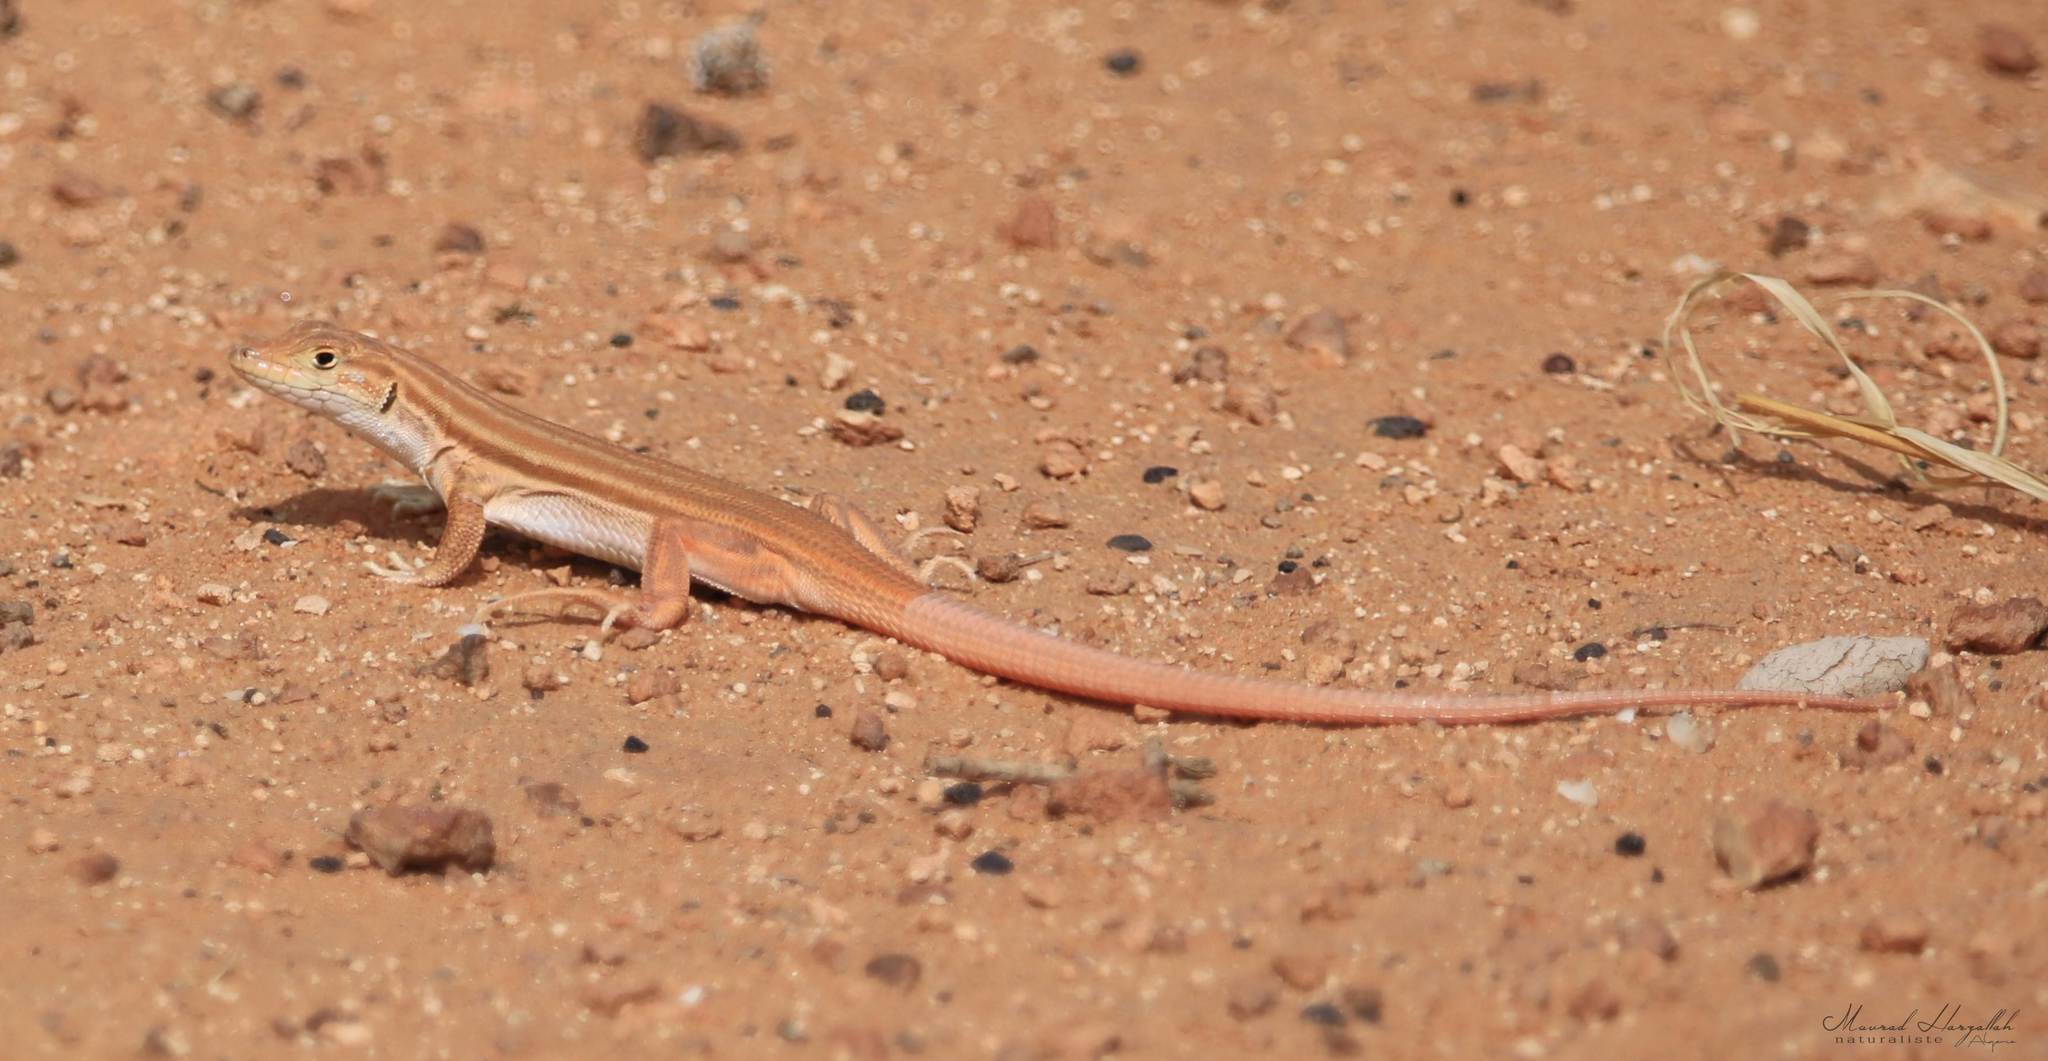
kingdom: Animalia
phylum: Chordata
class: Squamata
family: Lacertidae
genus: Acanthodactylus
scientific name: Acanthodactylus boskianus
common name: Bosc’s fringe-toed lizard
